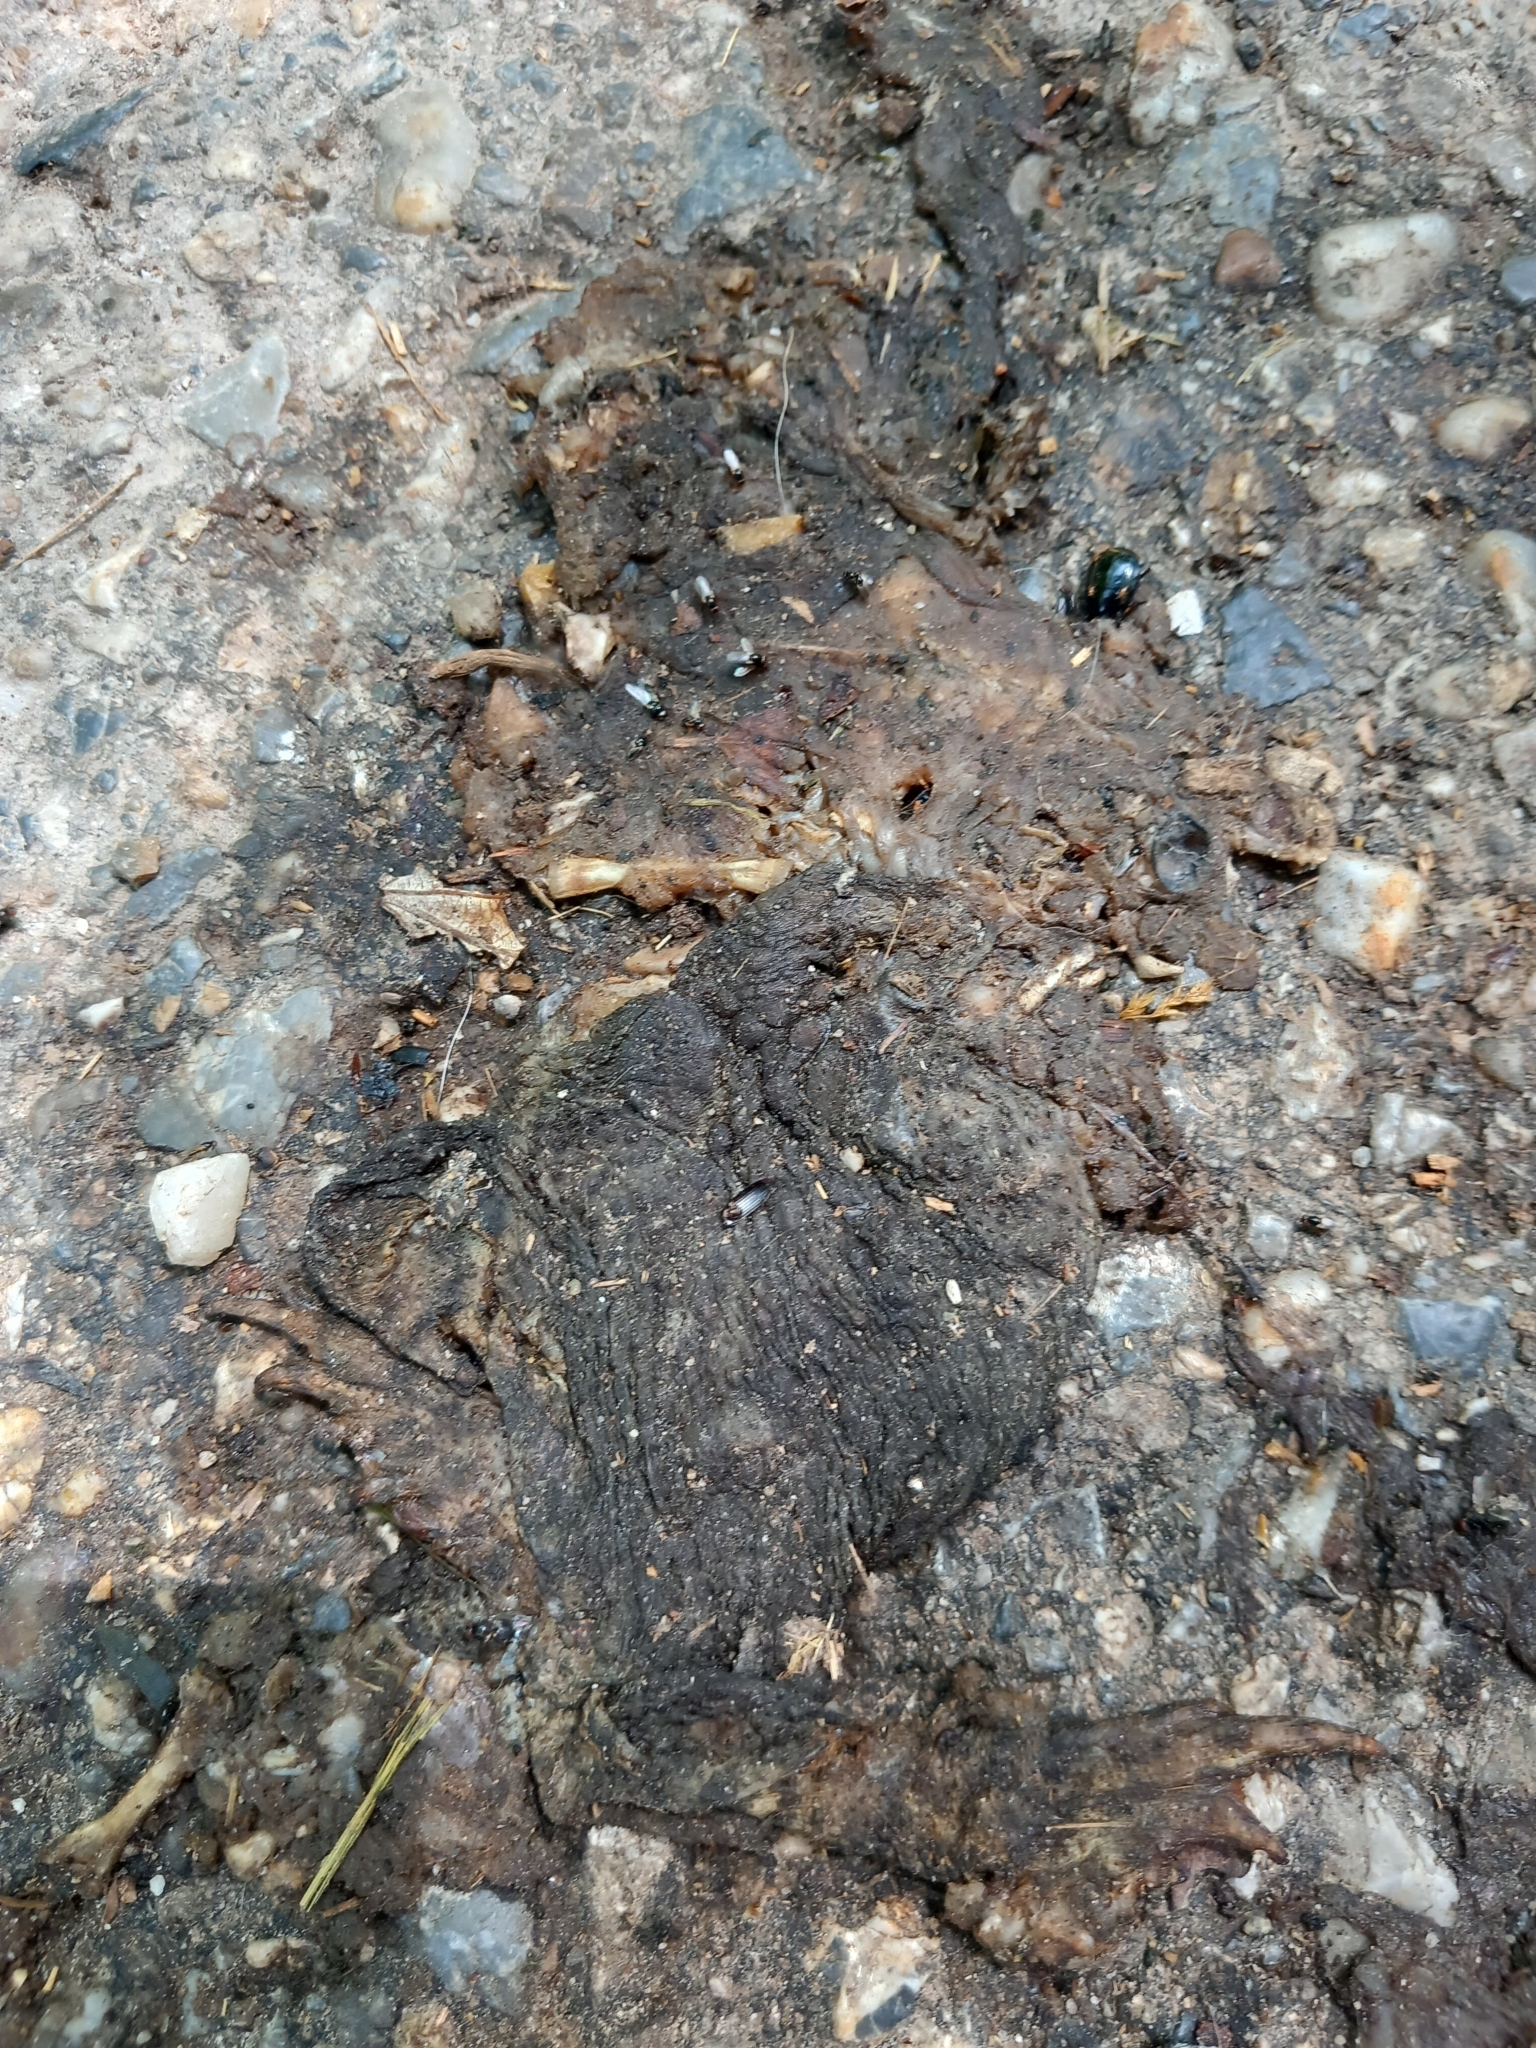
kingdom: Animalia
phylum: Chordata
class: Amphibia
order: Anura
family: Bufonidae
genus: Bufo
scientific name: Bufo bufo
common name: Common toad
